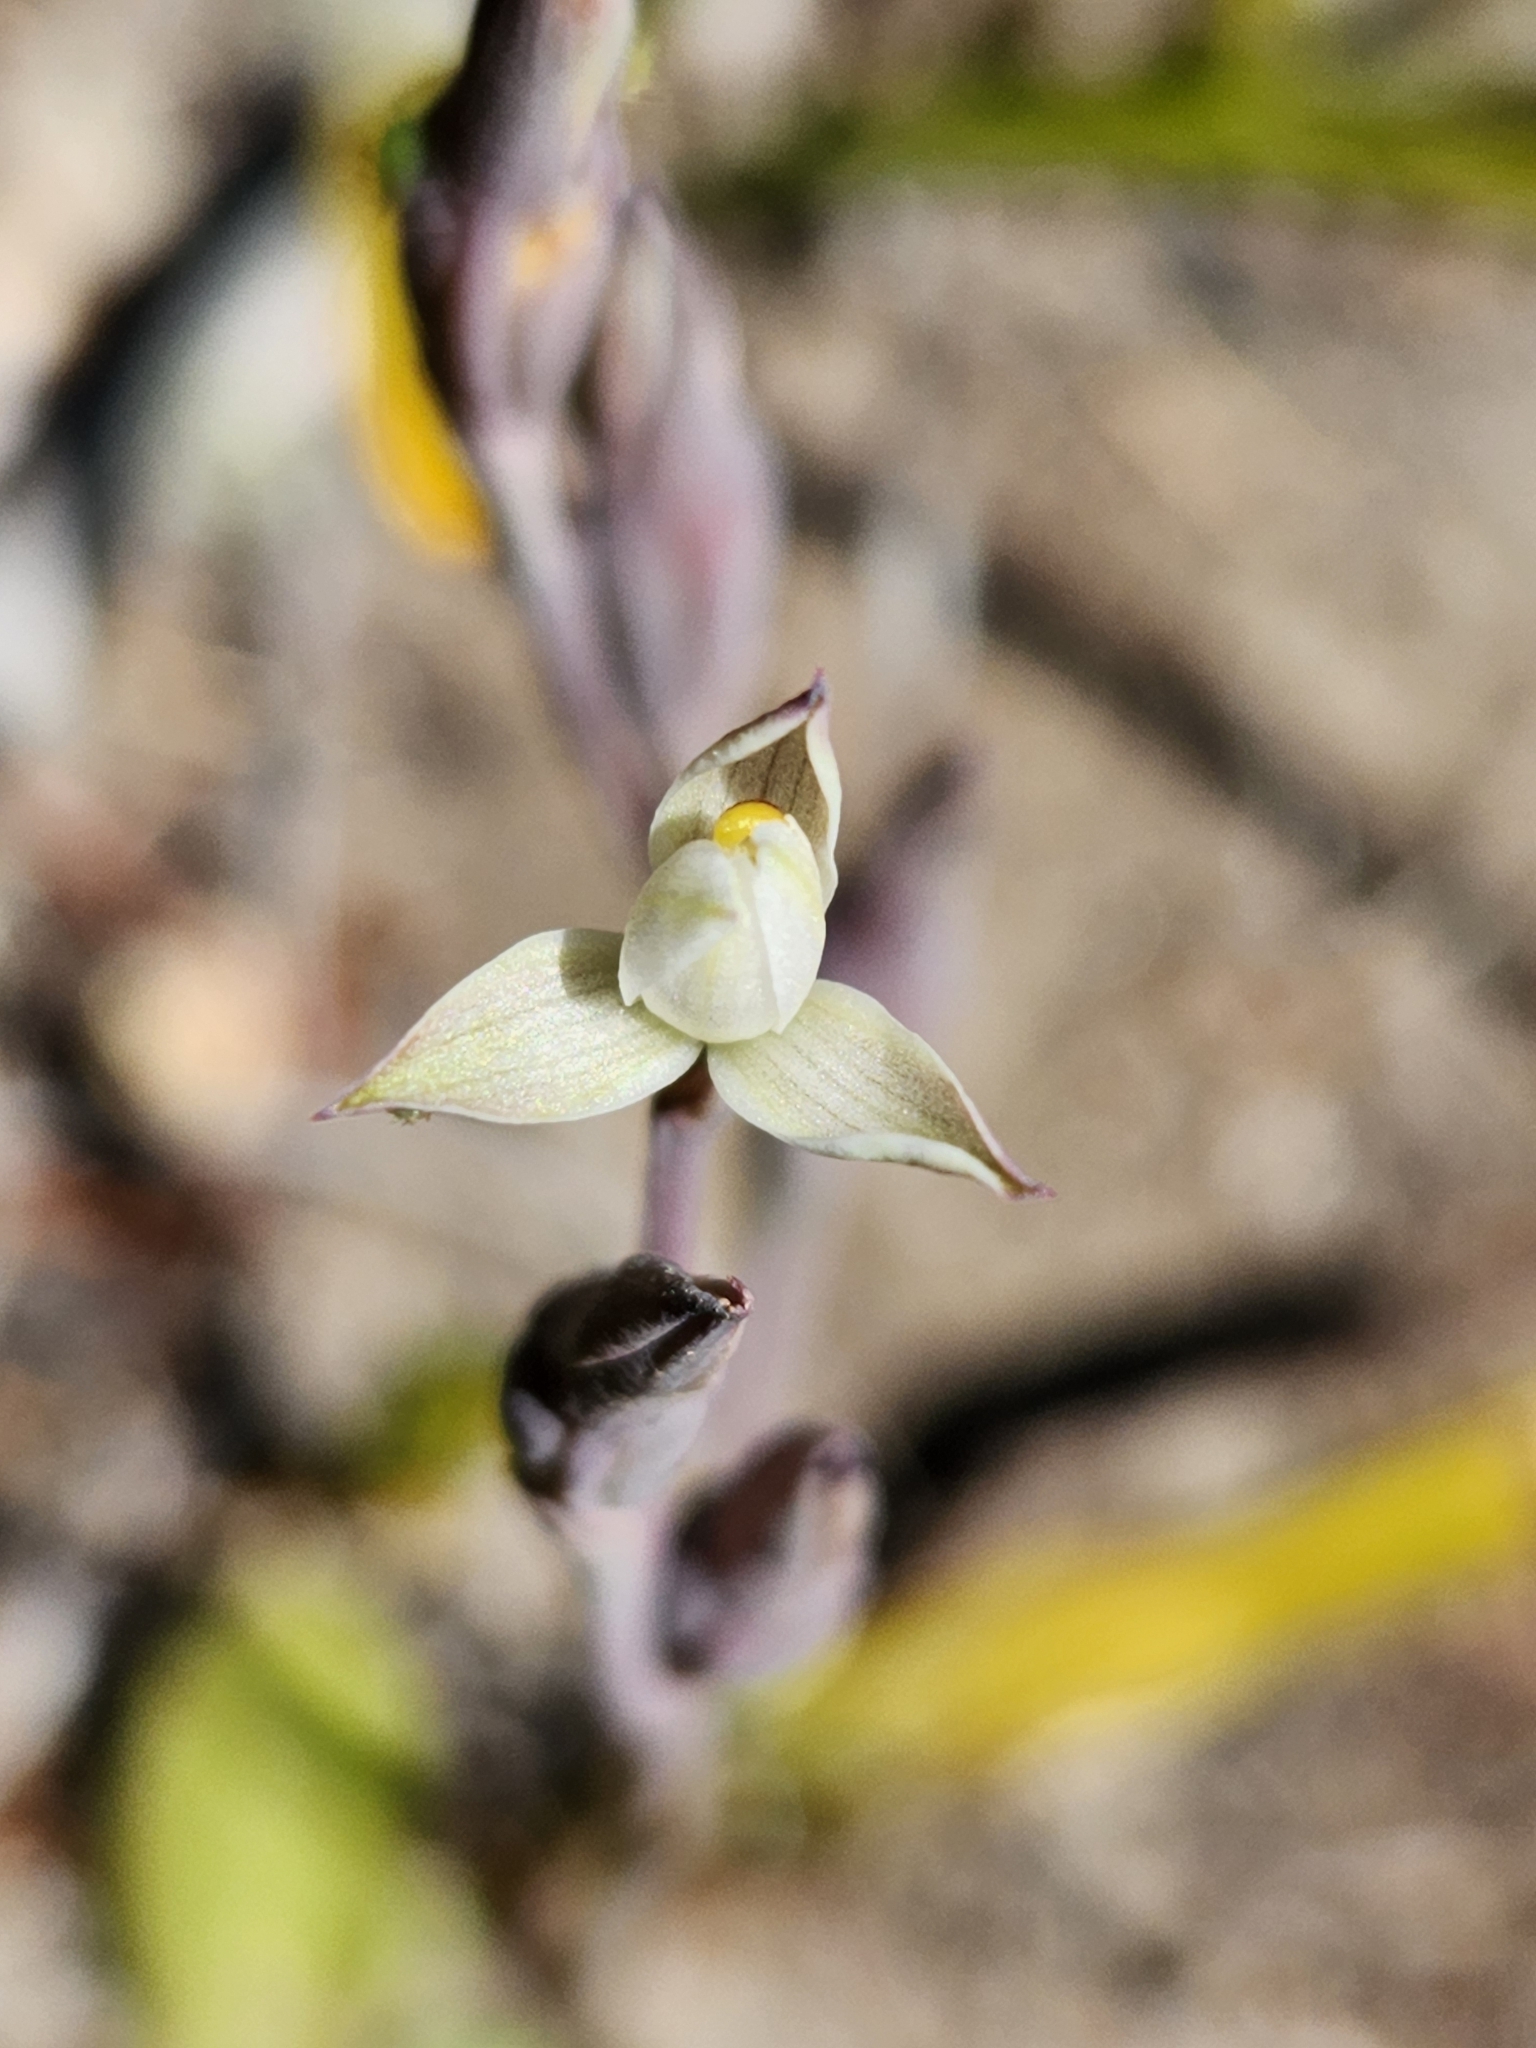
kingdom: Plantae
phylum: Tracheophyta
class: Liliopsida
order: Asparagales
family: Orchidaceae
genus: Thelymitra
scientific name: Thelymitra longifolia
